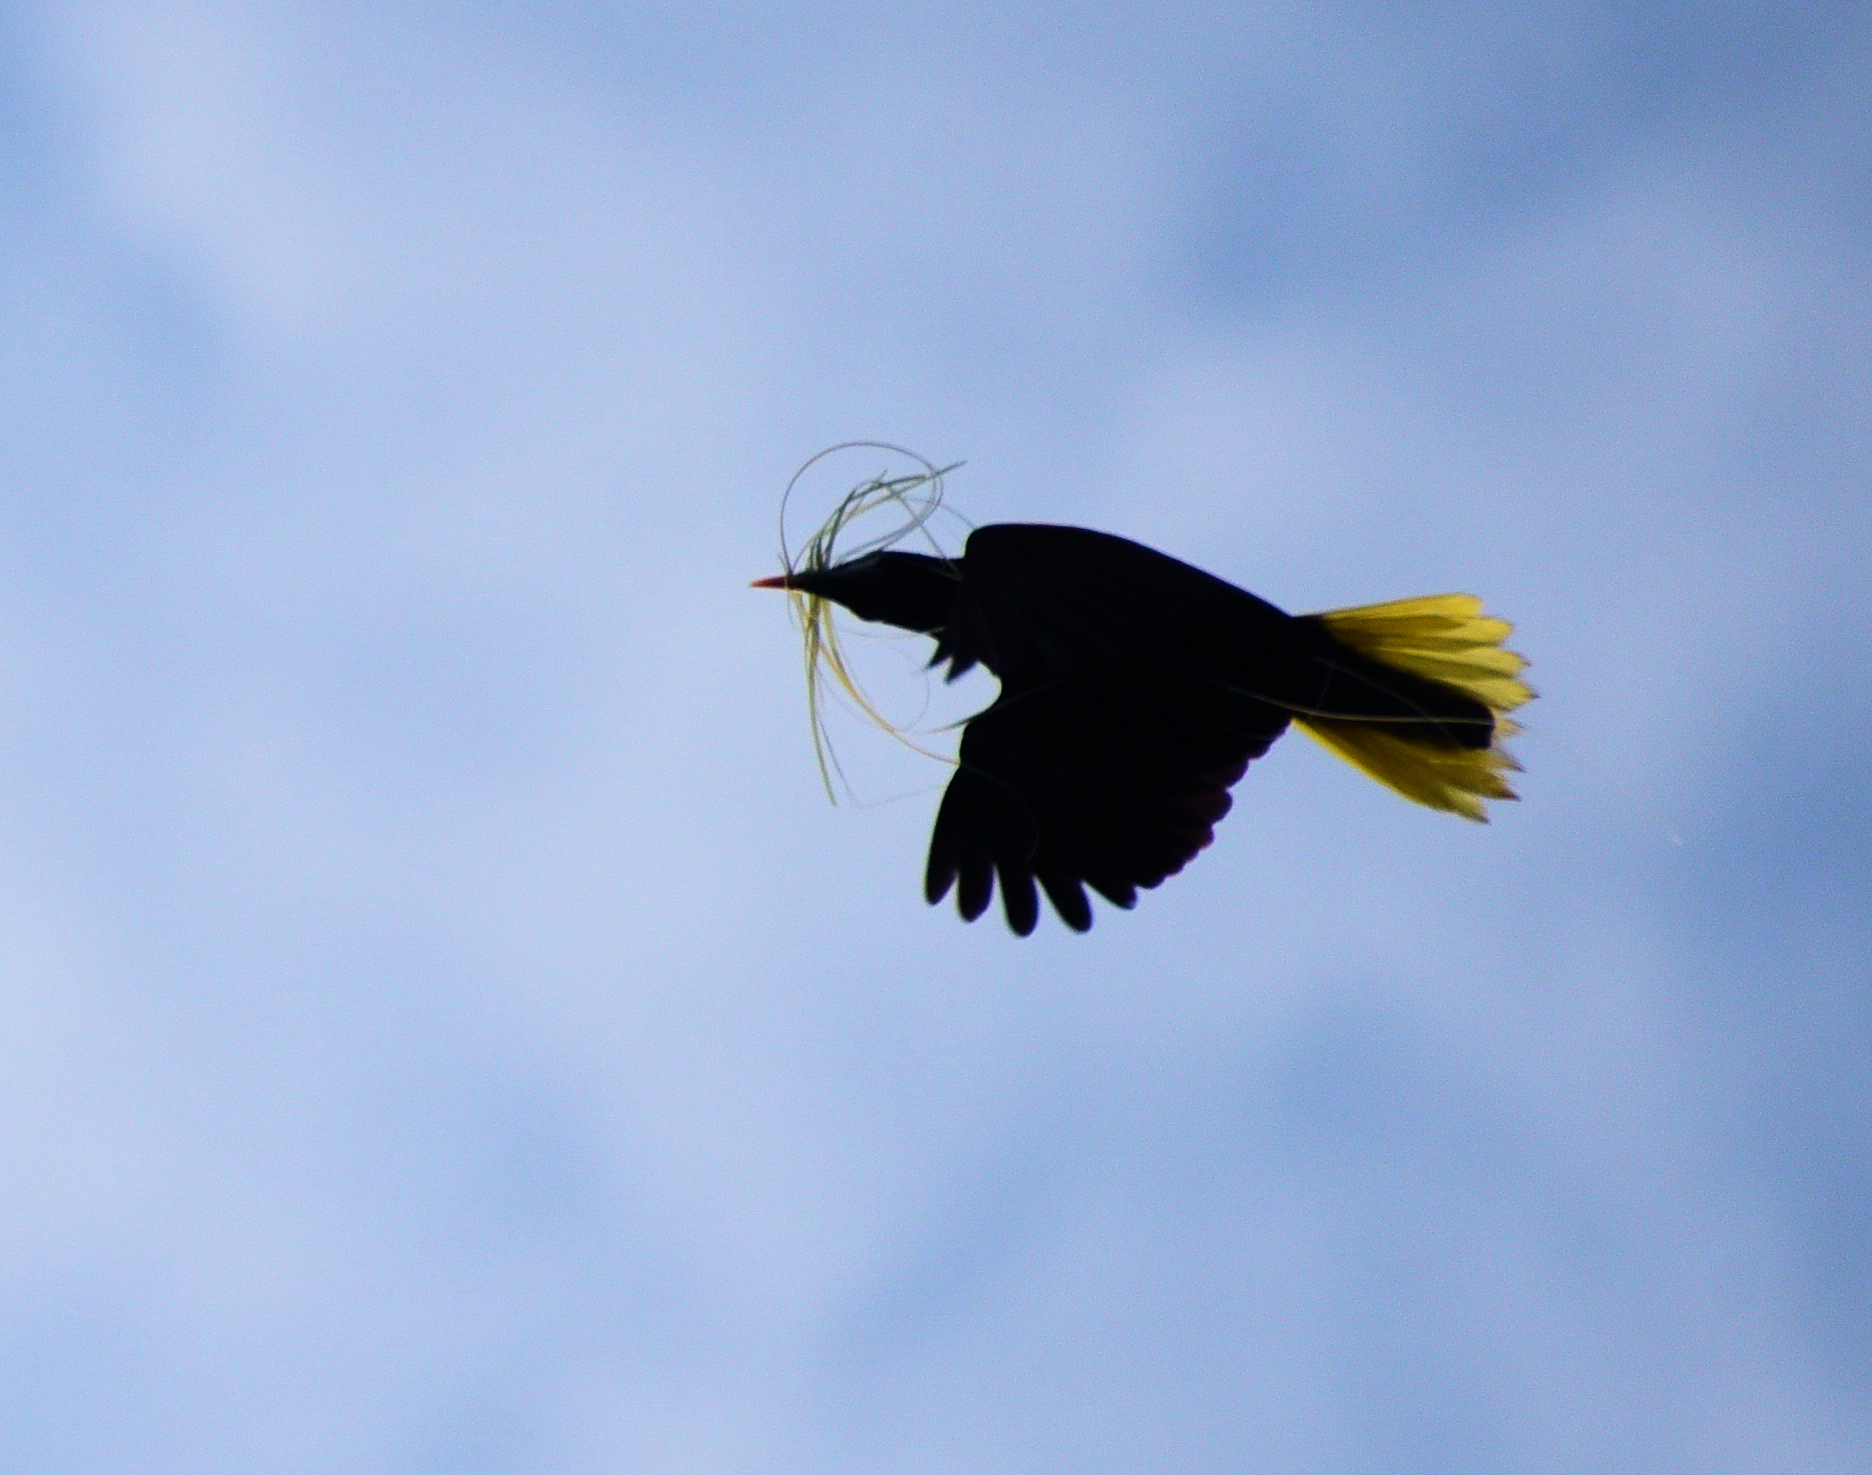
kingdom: Animalia
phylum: Chordata
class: Aves
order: Passeriformes
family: Icteridae
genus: Psarocolius
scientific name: Psarocolius montezuma
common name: Montezuma oropendola
